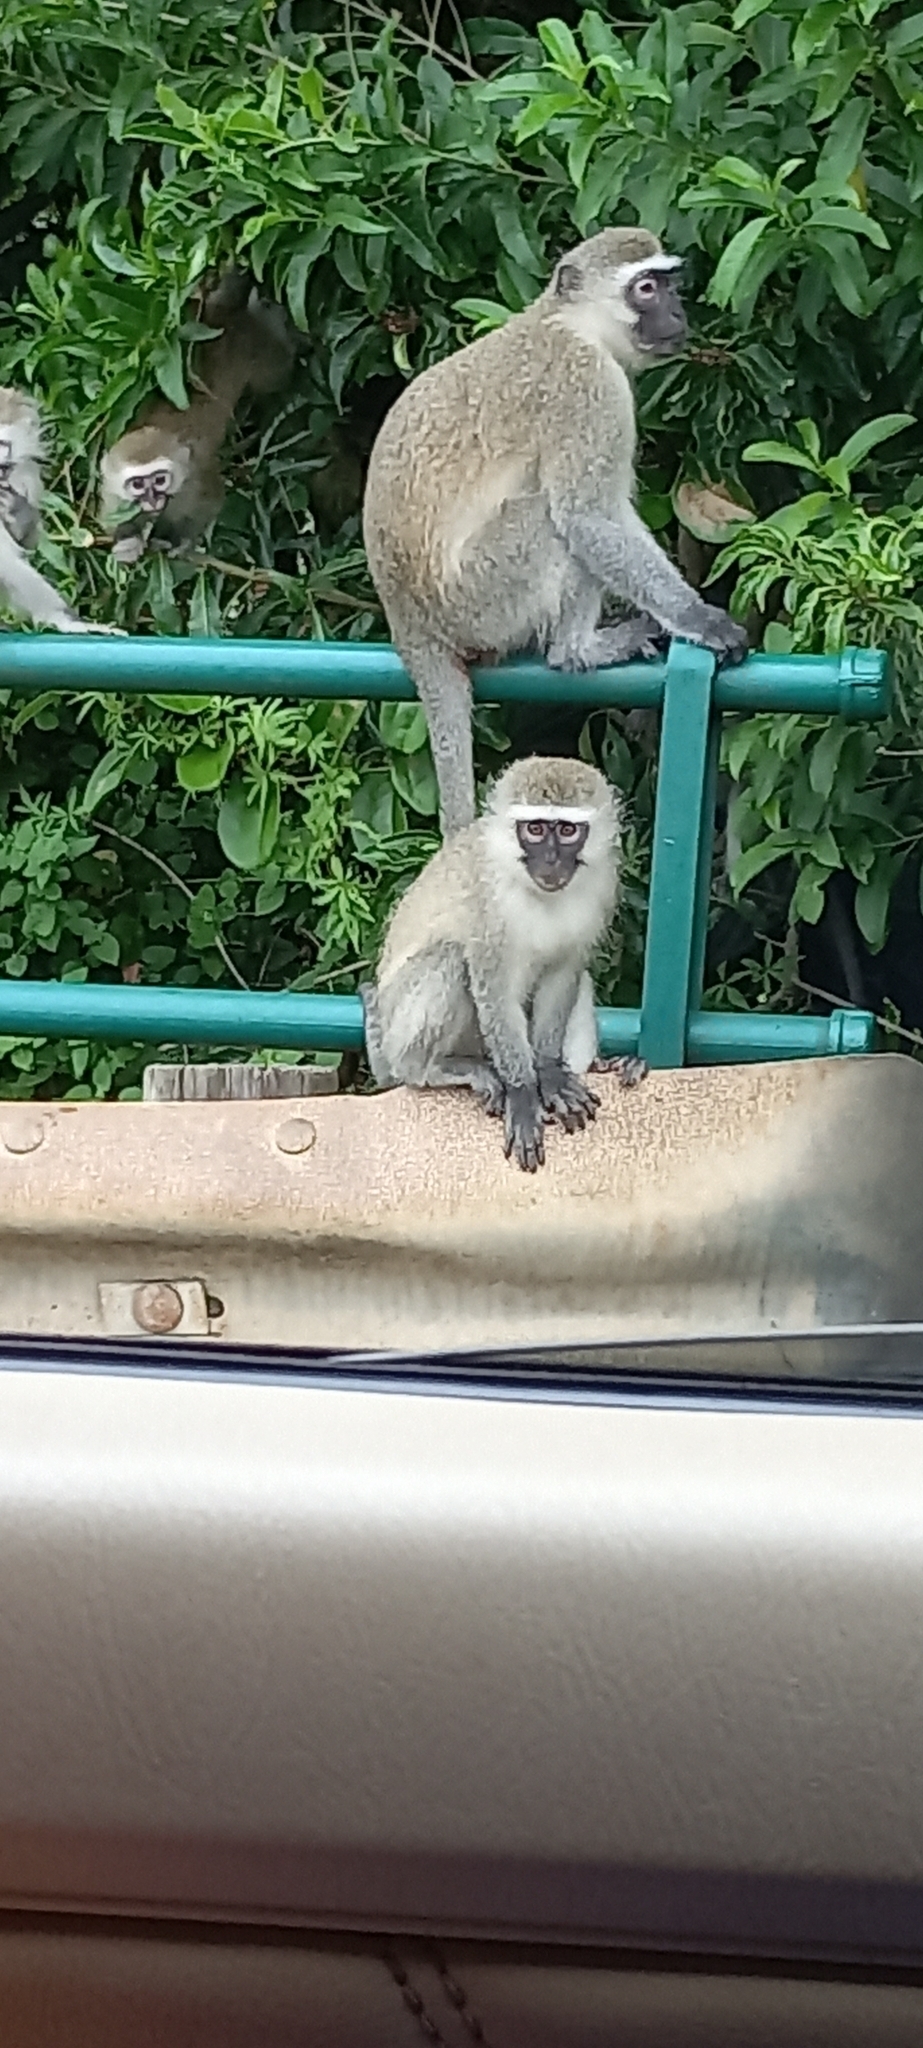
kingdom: Animalia
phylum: Chordata
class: Mammalia
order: Primates
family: Cercopithecidae
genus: Chlorocebus
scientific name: Chlorocebus pygerythrus
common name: Vervet monkey
